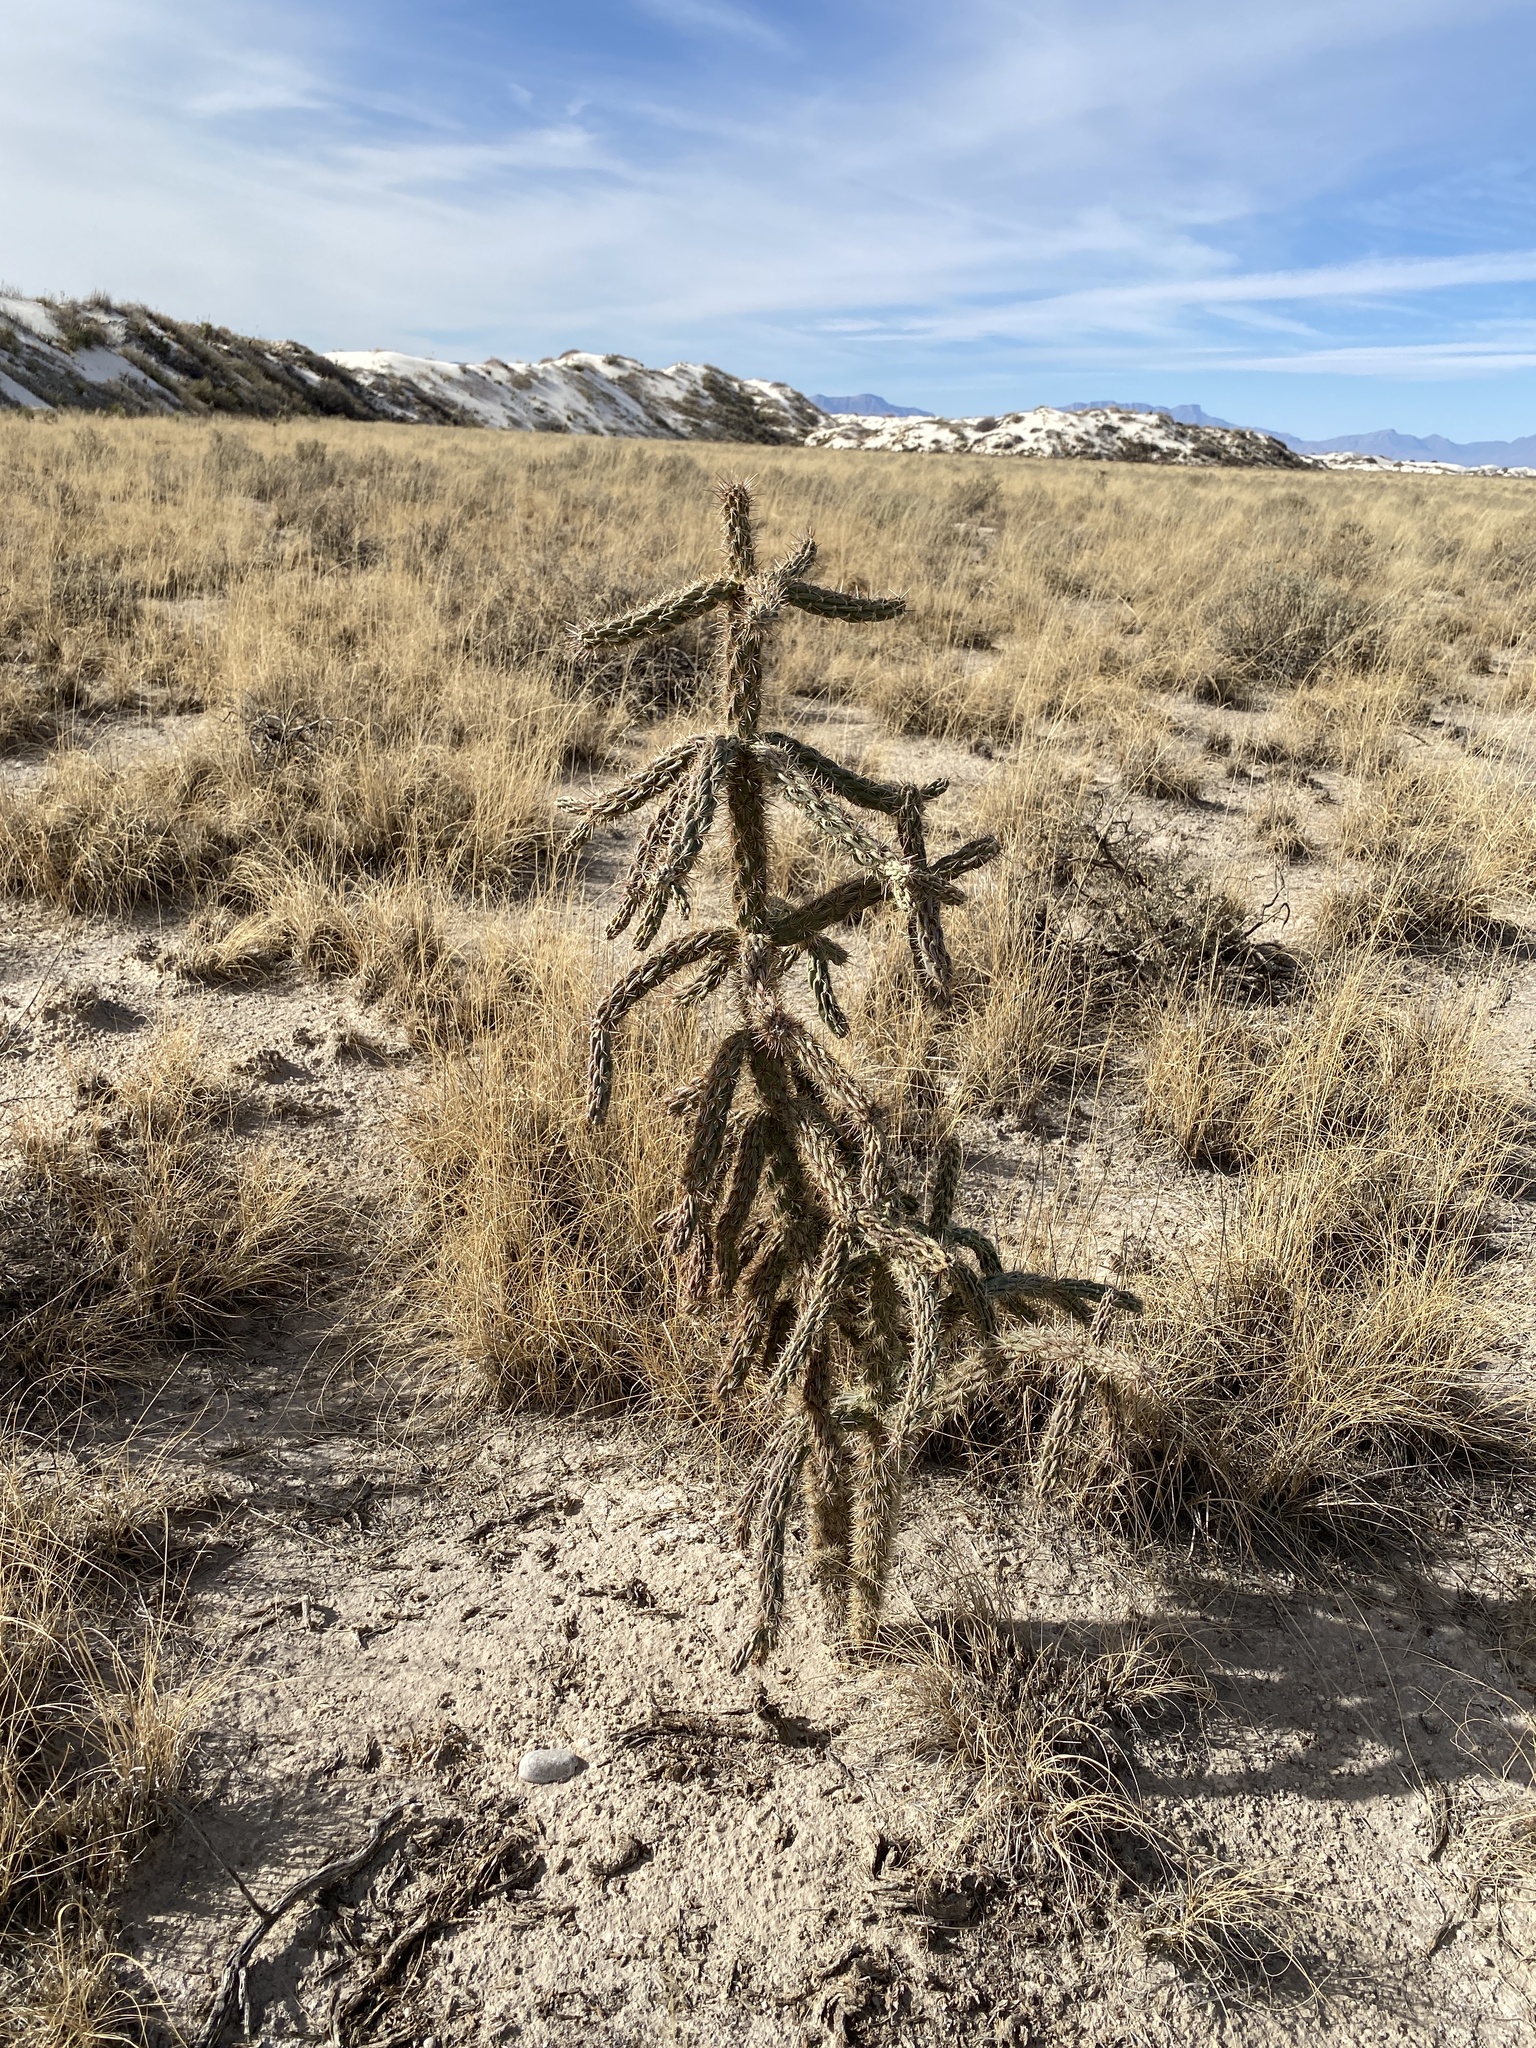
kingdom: Plantae
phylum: Tracheophyta
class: Magnoliopsida
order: Caryophyllales
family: Cactaceae
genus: Cylindropuntia
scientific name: Cylindropuntia imbricata
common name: Candelabrum cactus
